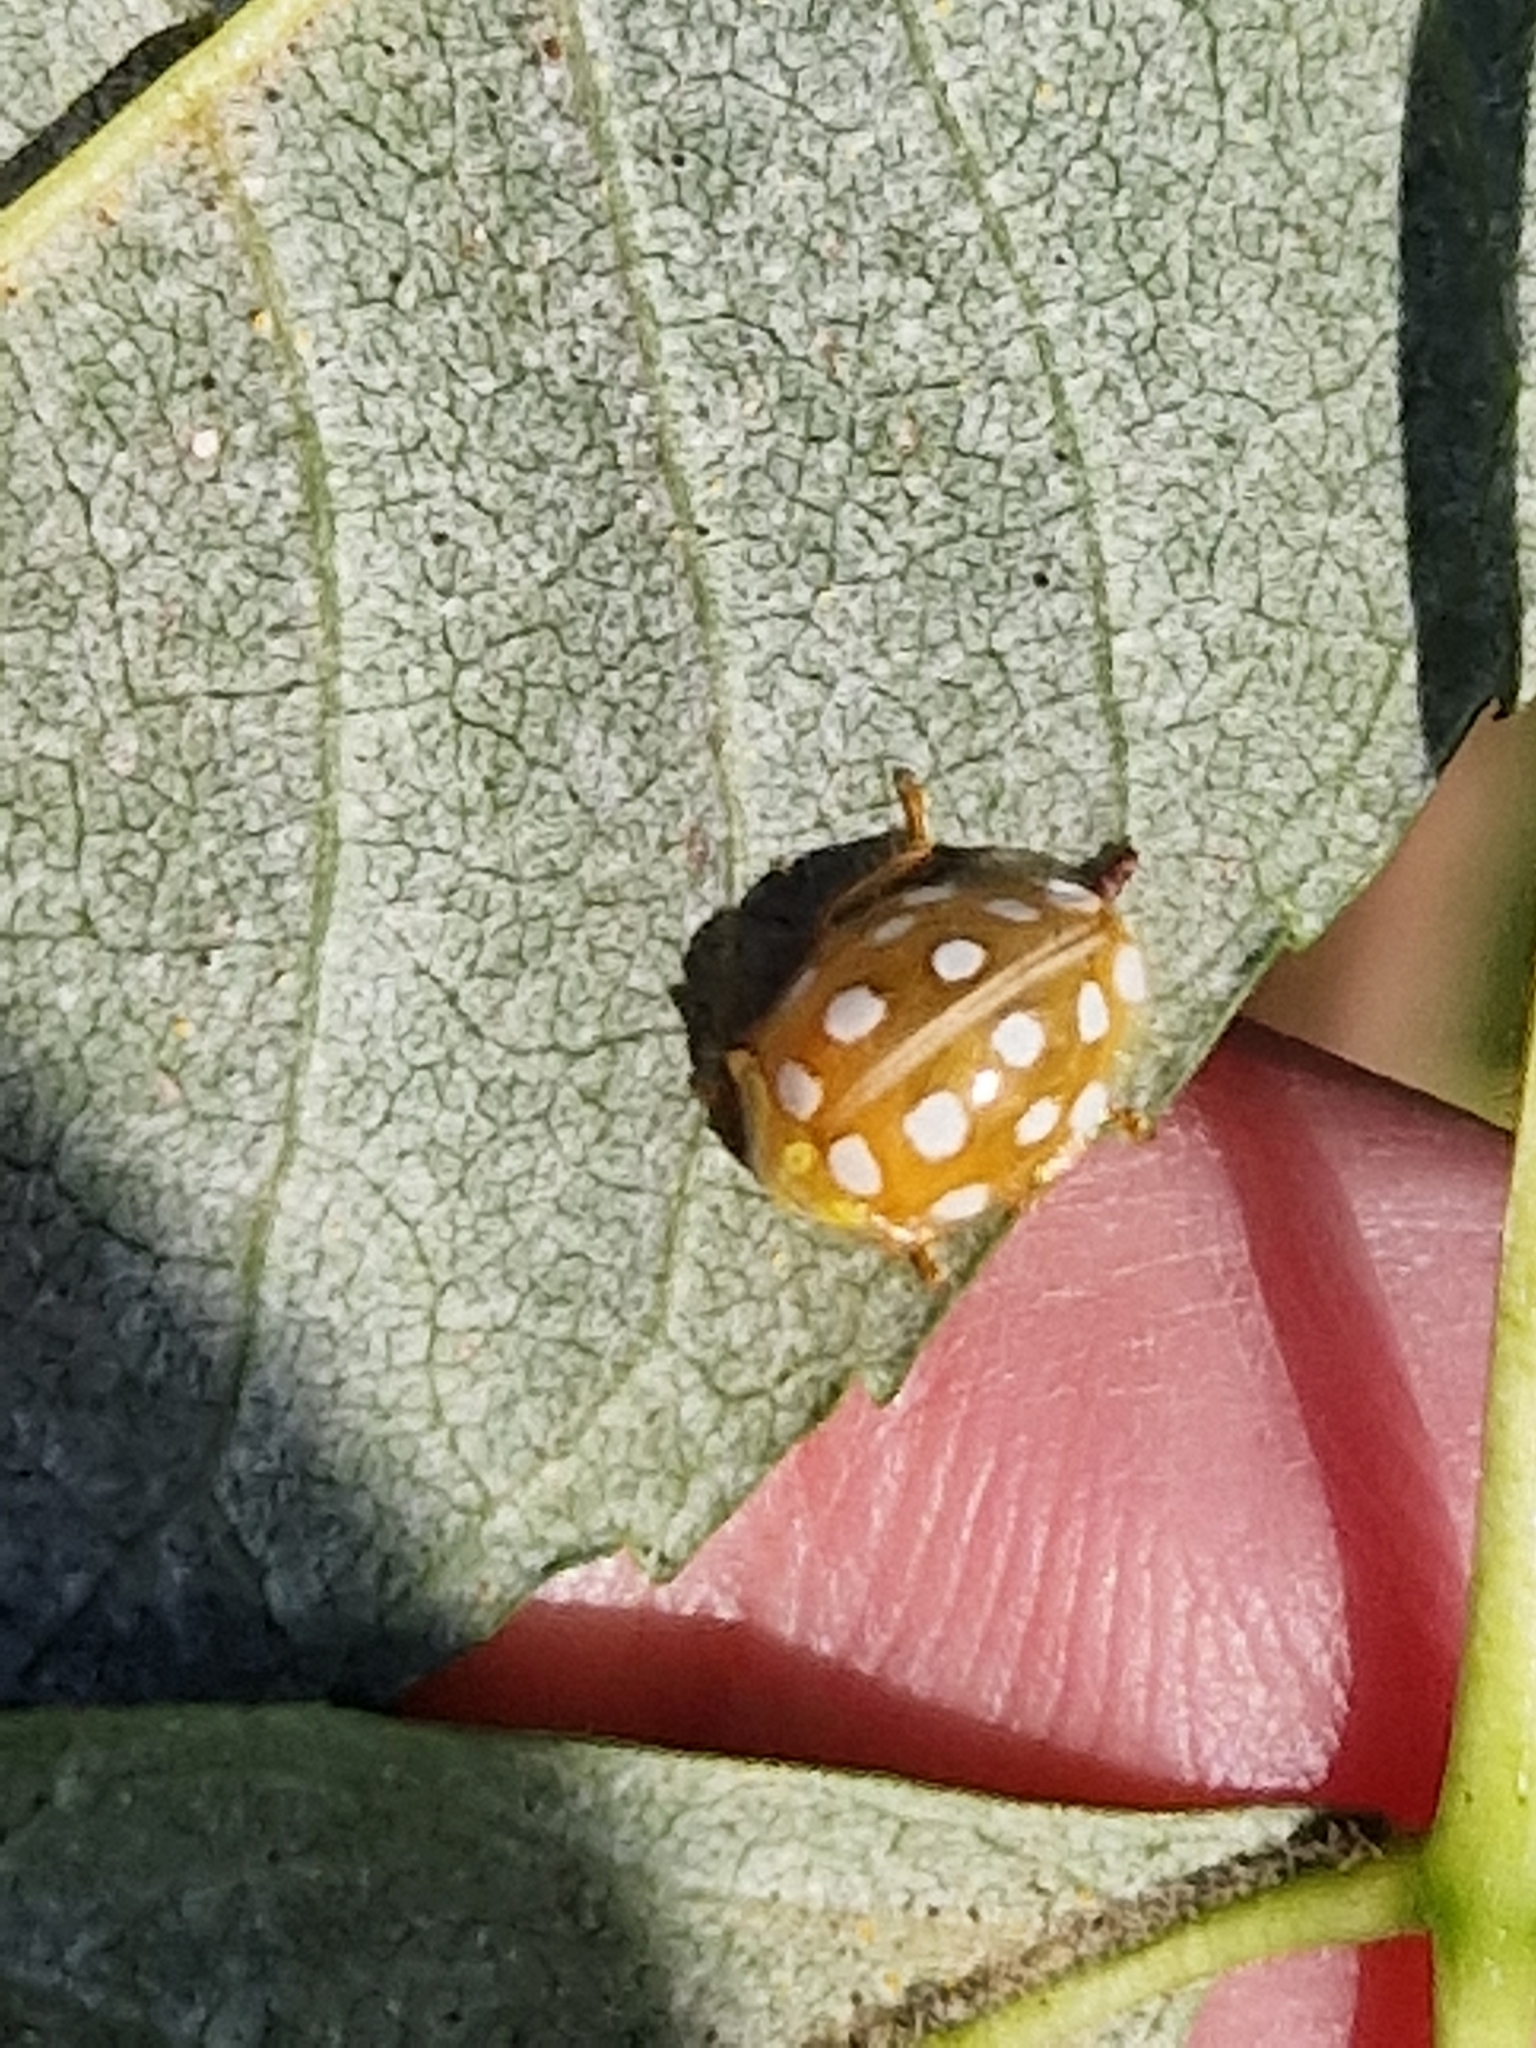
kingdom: Animalia
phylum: Arthropoda
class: Insecta
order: Coleoptera
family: Coccinellidae
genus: Halyzia
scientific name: Halyzia sedecimguttata
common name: Orange ladybird
